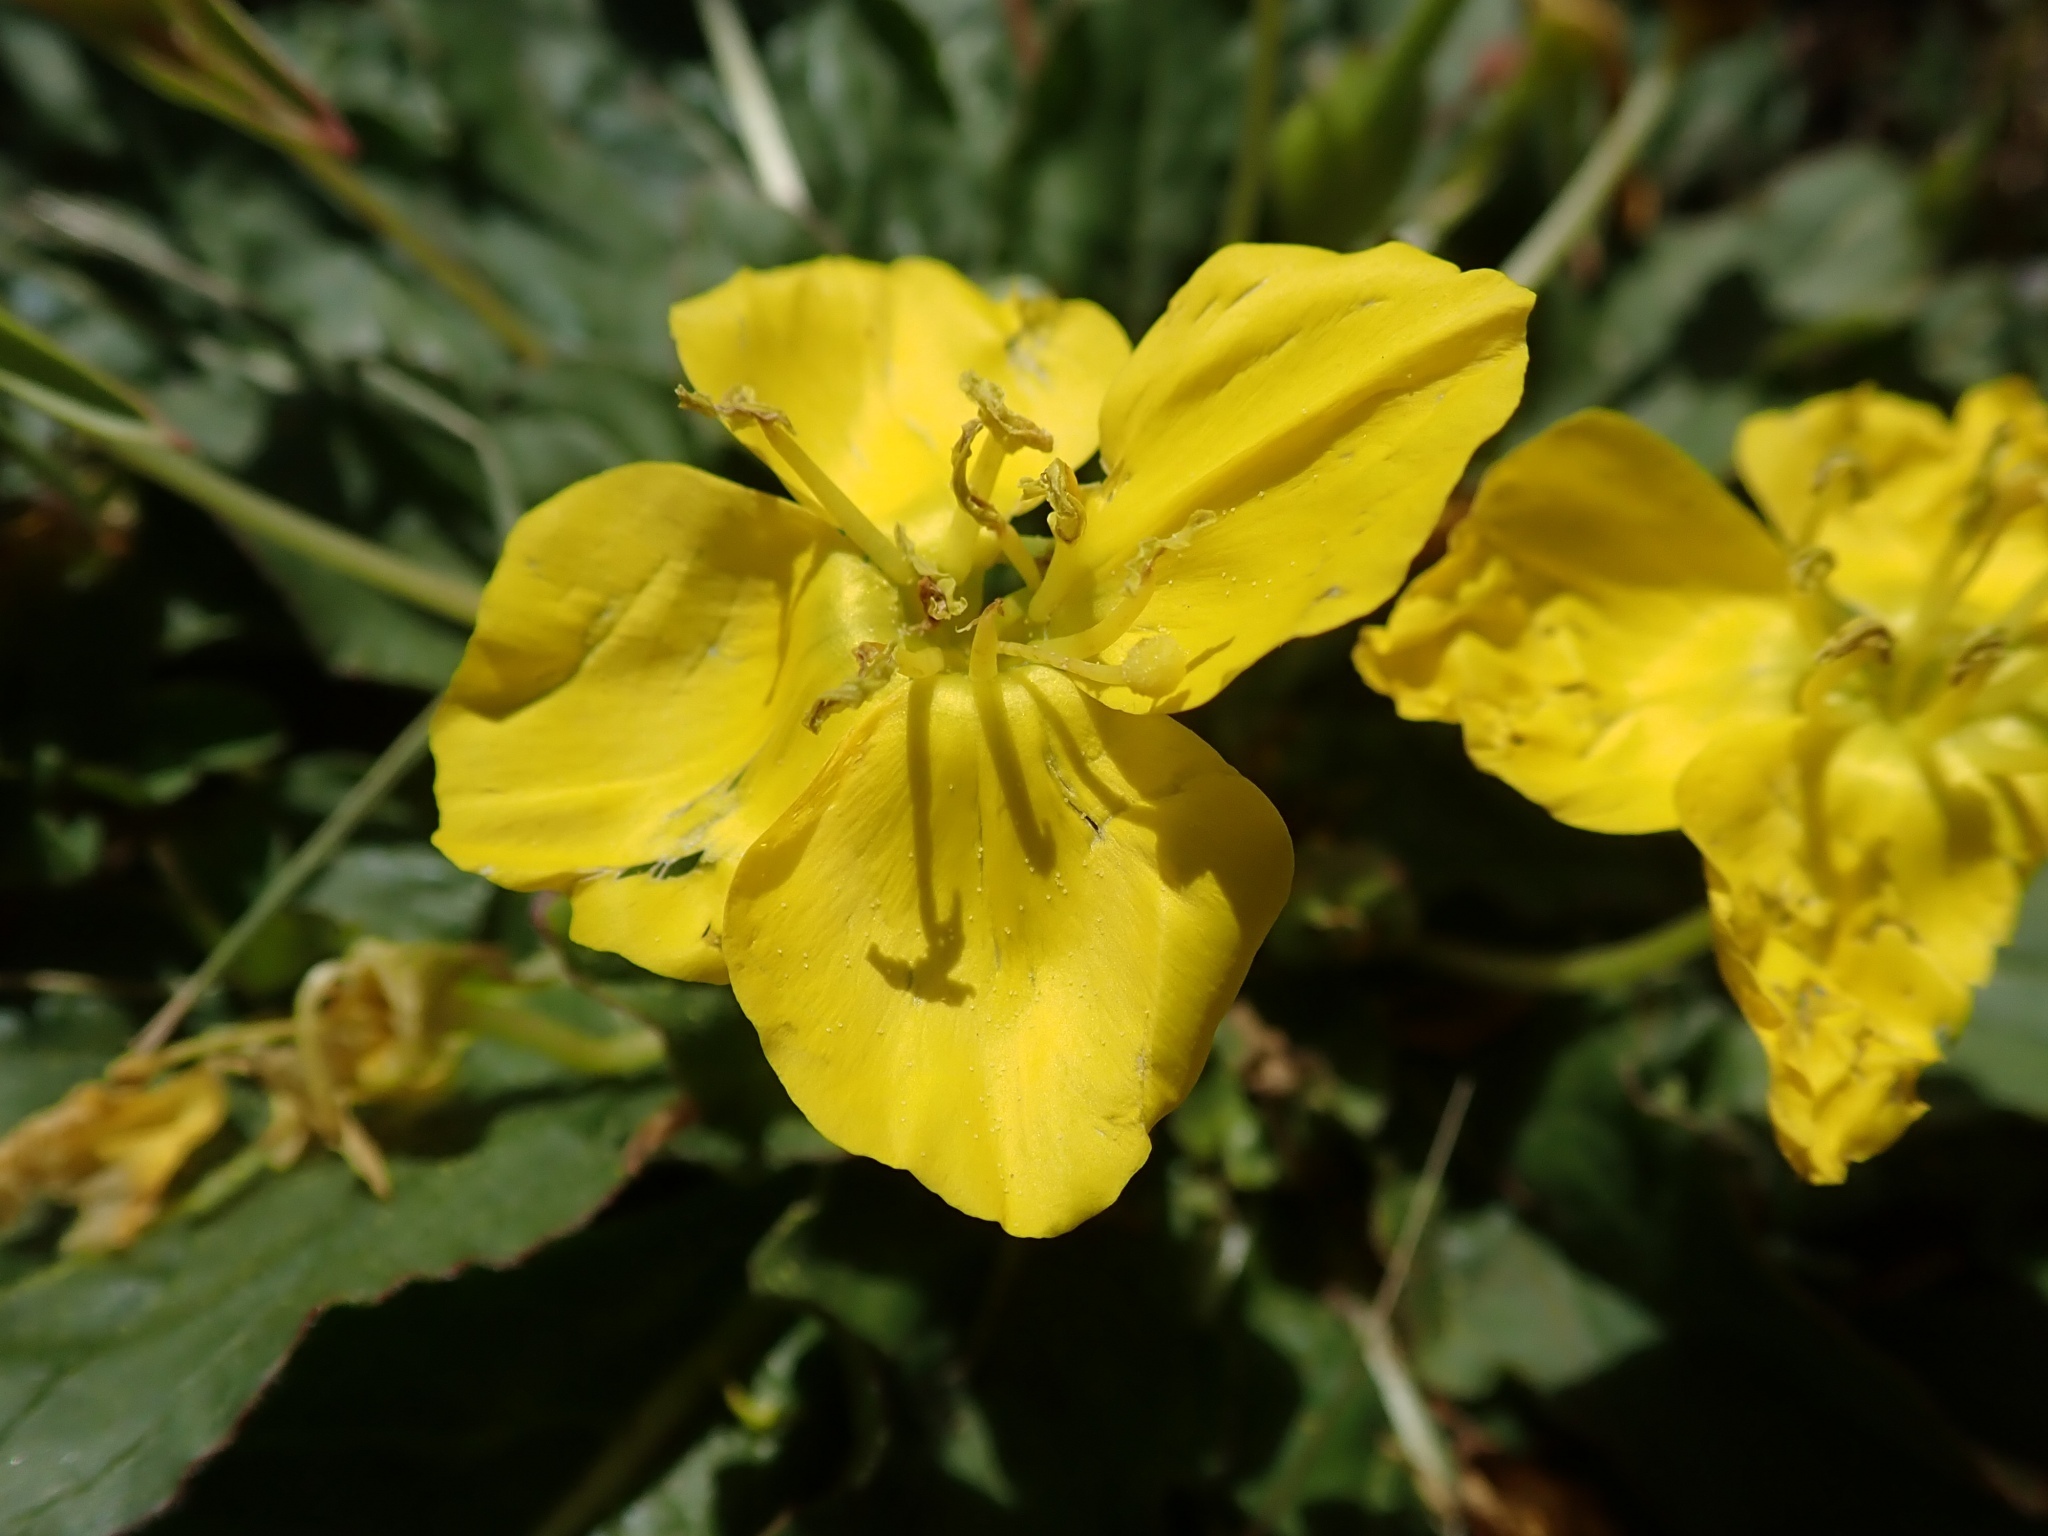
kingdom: Plantae
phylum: Tracheophyta
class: Magnoliopsida
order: Myrtales
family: Onagraceae
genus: Taraxia
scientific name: Taraxia ovata
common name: Goldeneggs
